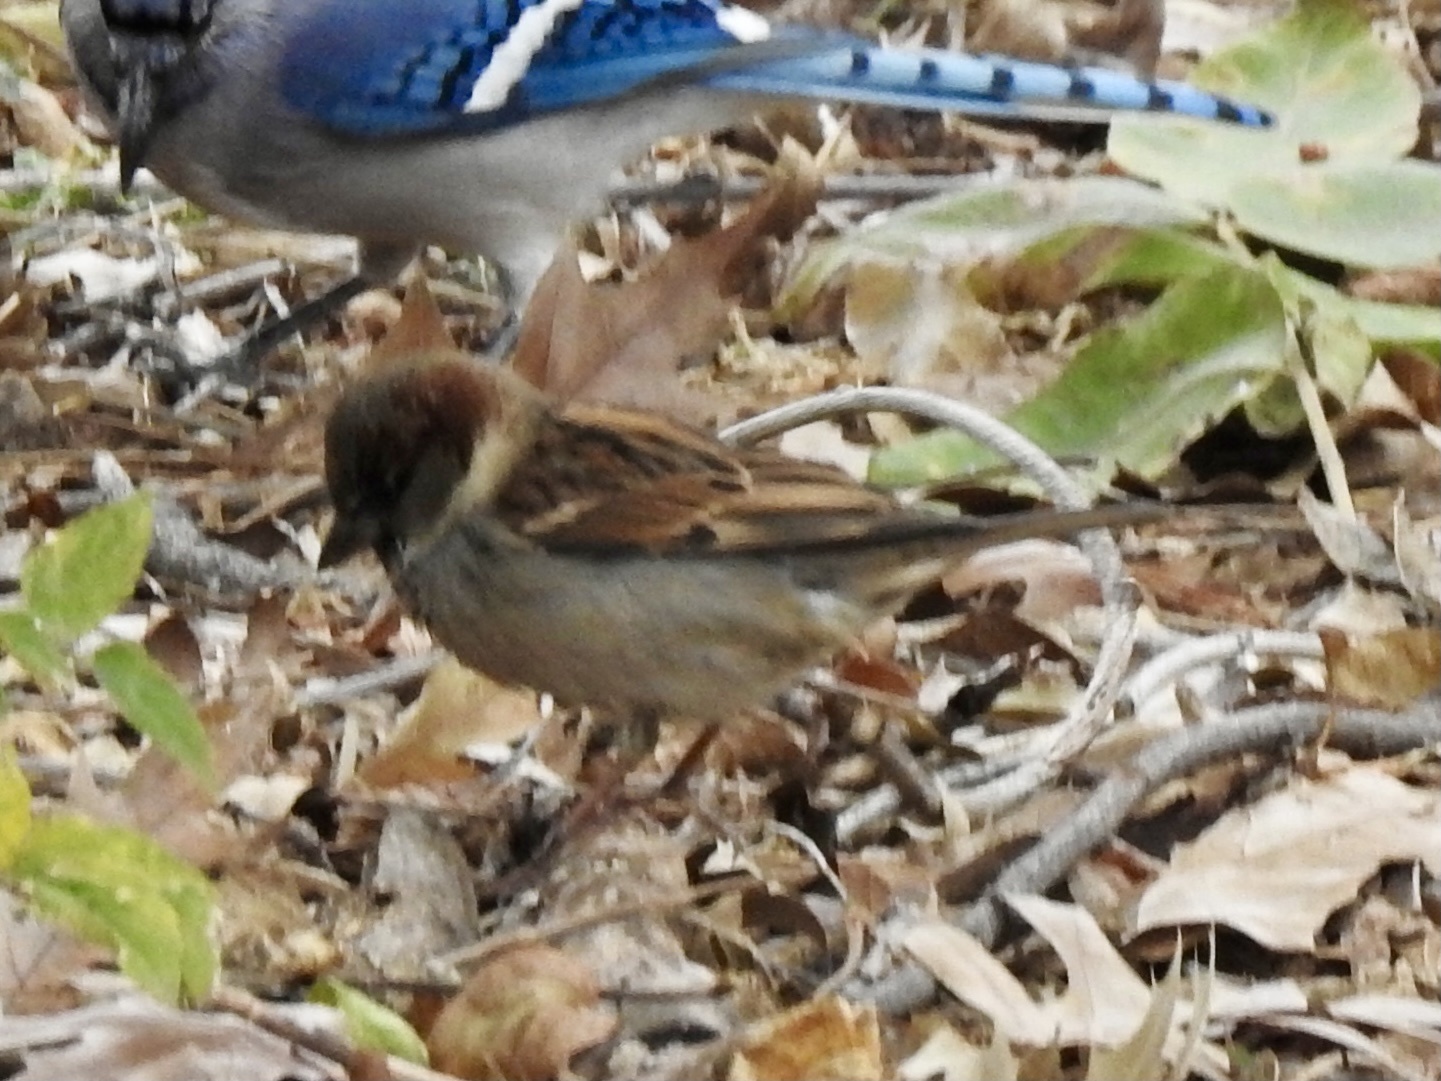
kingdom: Animalia
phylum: Chordata
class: Aves
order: Passeriformes
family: Passeridae
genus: Passer
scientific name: Passer domesticus
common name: House sparrow
